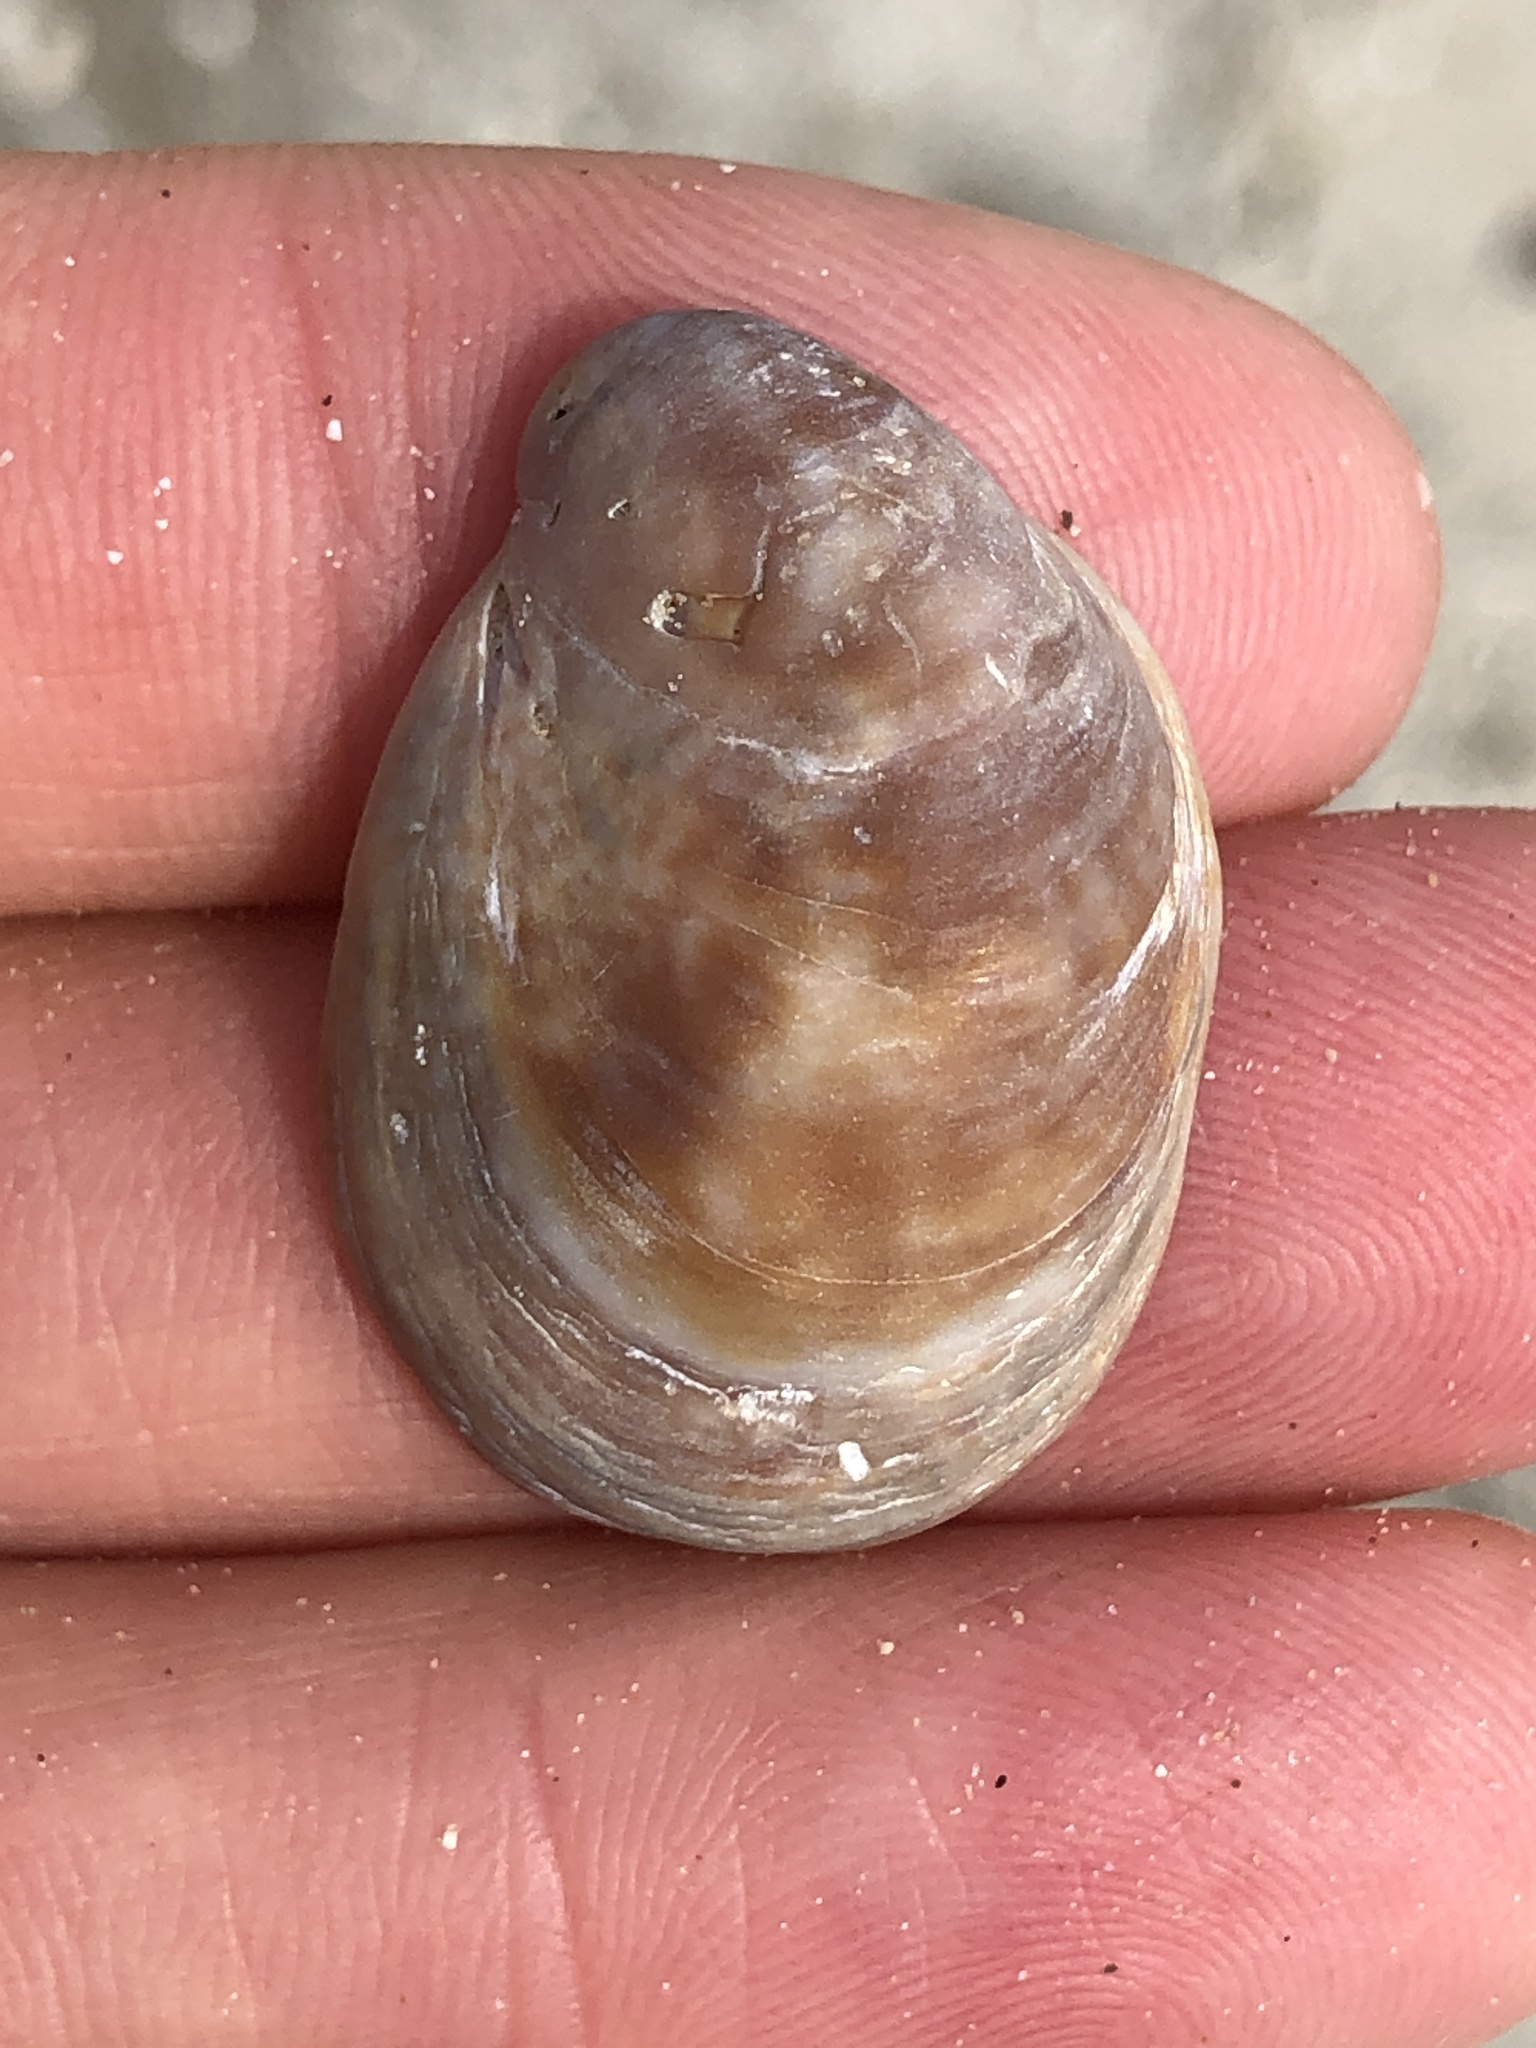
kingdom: Animalia
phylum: Mollusca
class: Gastropoda
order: Littorinimorpha
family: Calyptraeidae
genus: Crepidula
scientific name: Crepidula fornicata
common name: Slipper limpet
